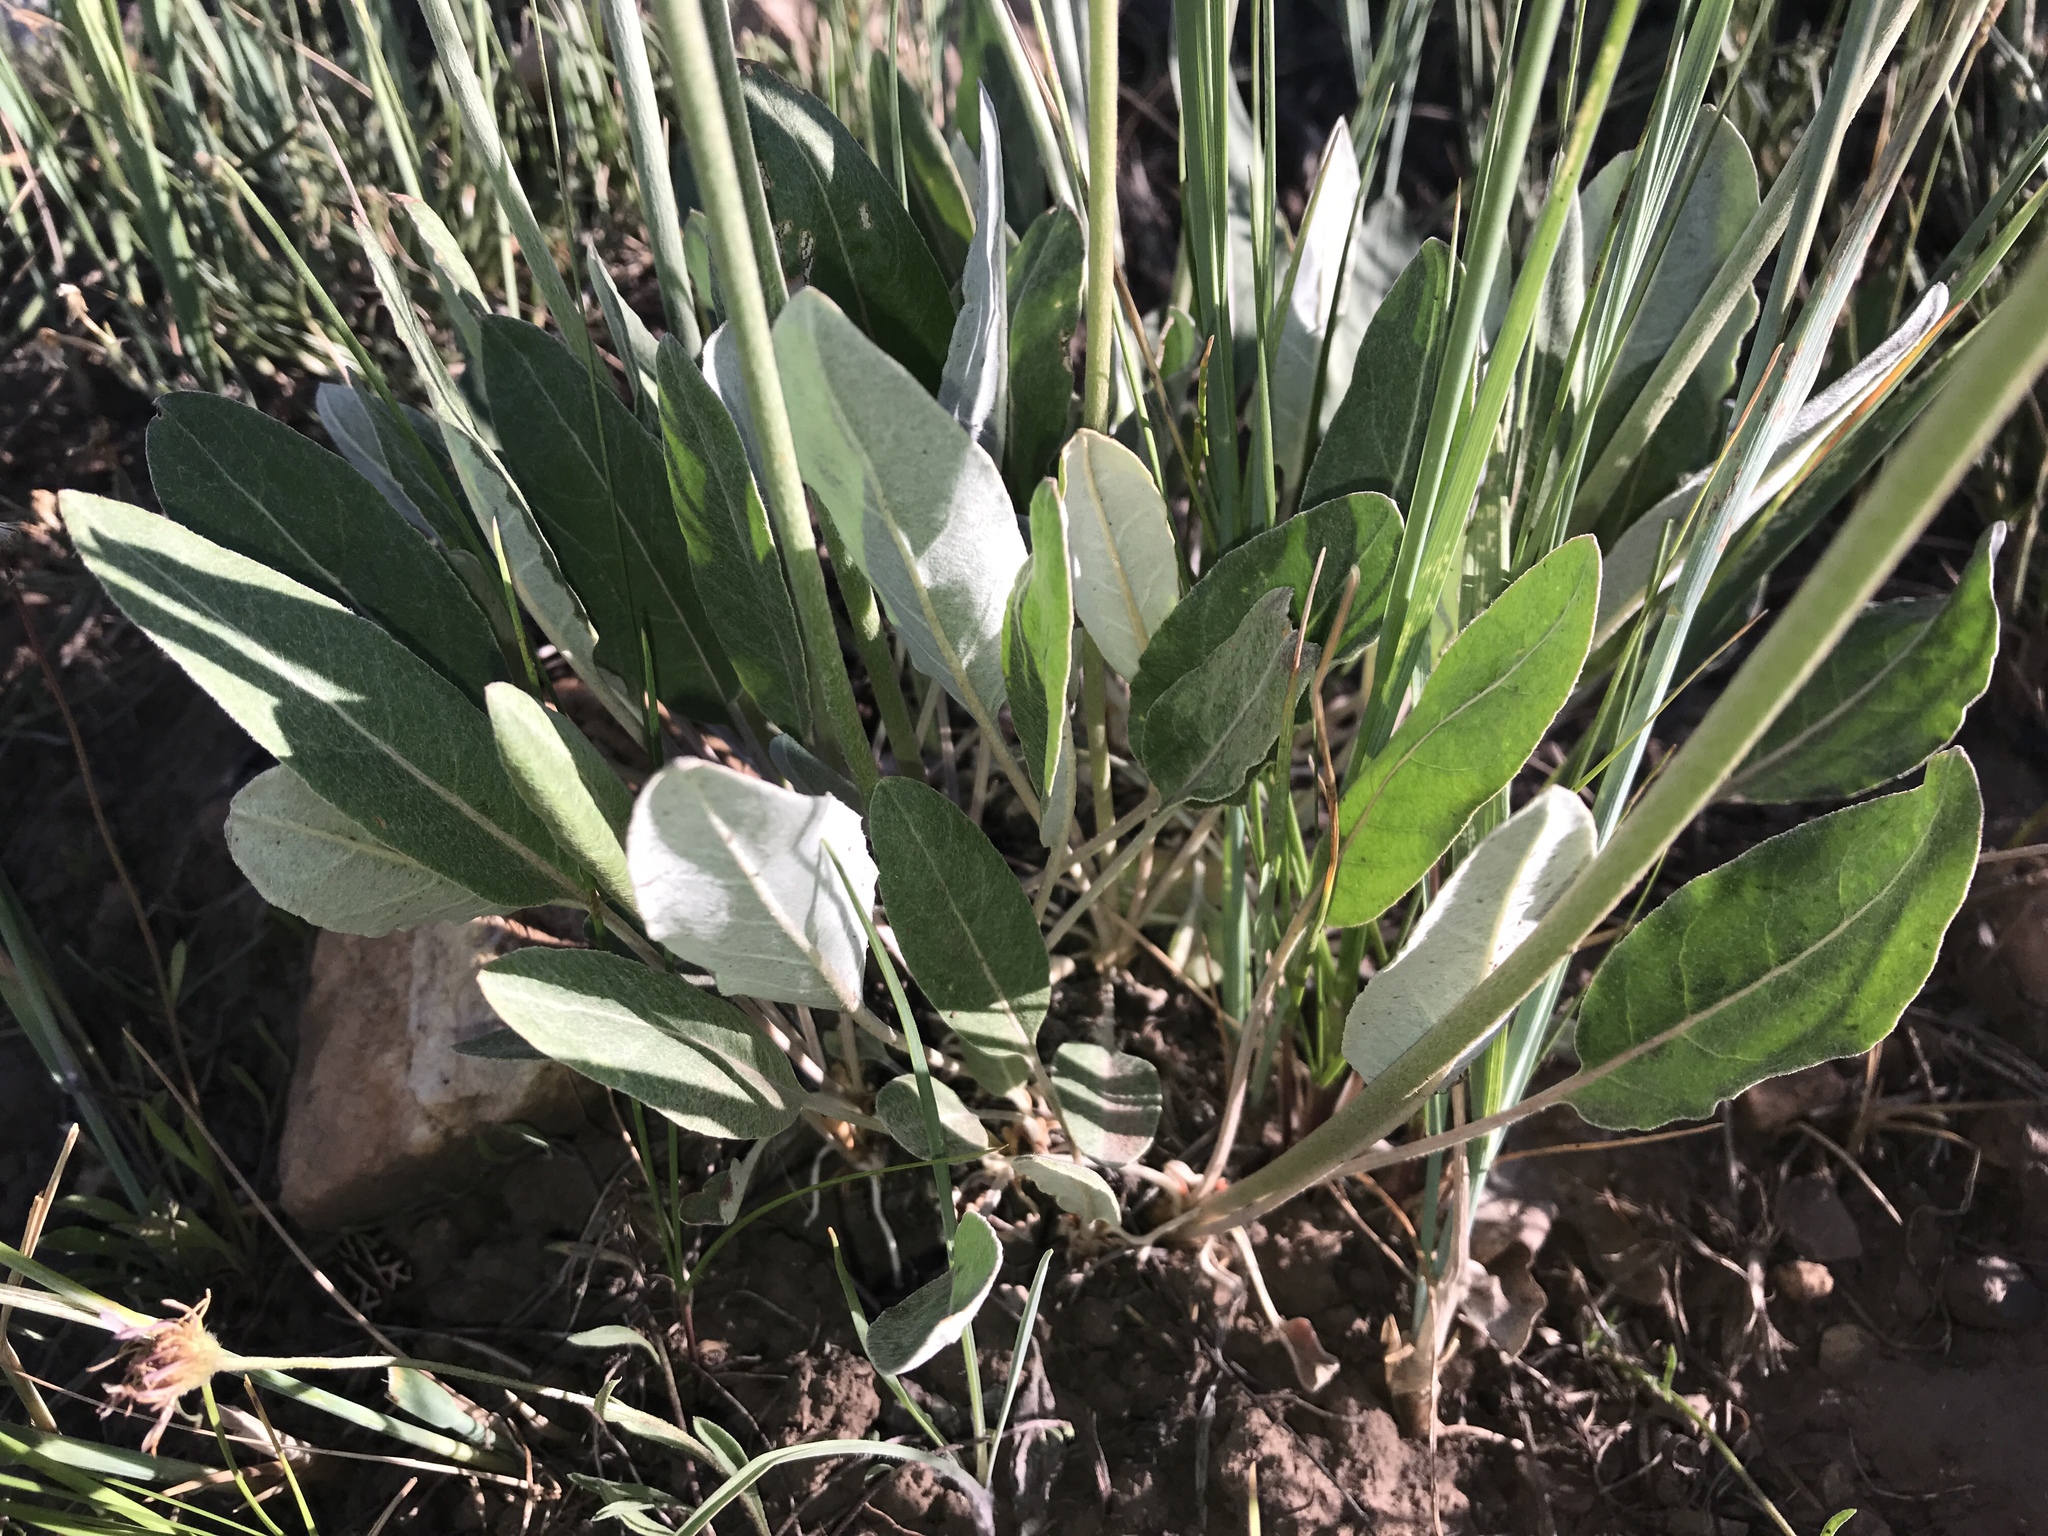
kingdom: Plantae
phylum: Tracheophyta
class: Magnoliopsida
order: Caryophyllales
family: Polygonaceae
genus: Eriogonum
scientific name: Eriogonum racemosum
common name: Redroot wild buckwheat
